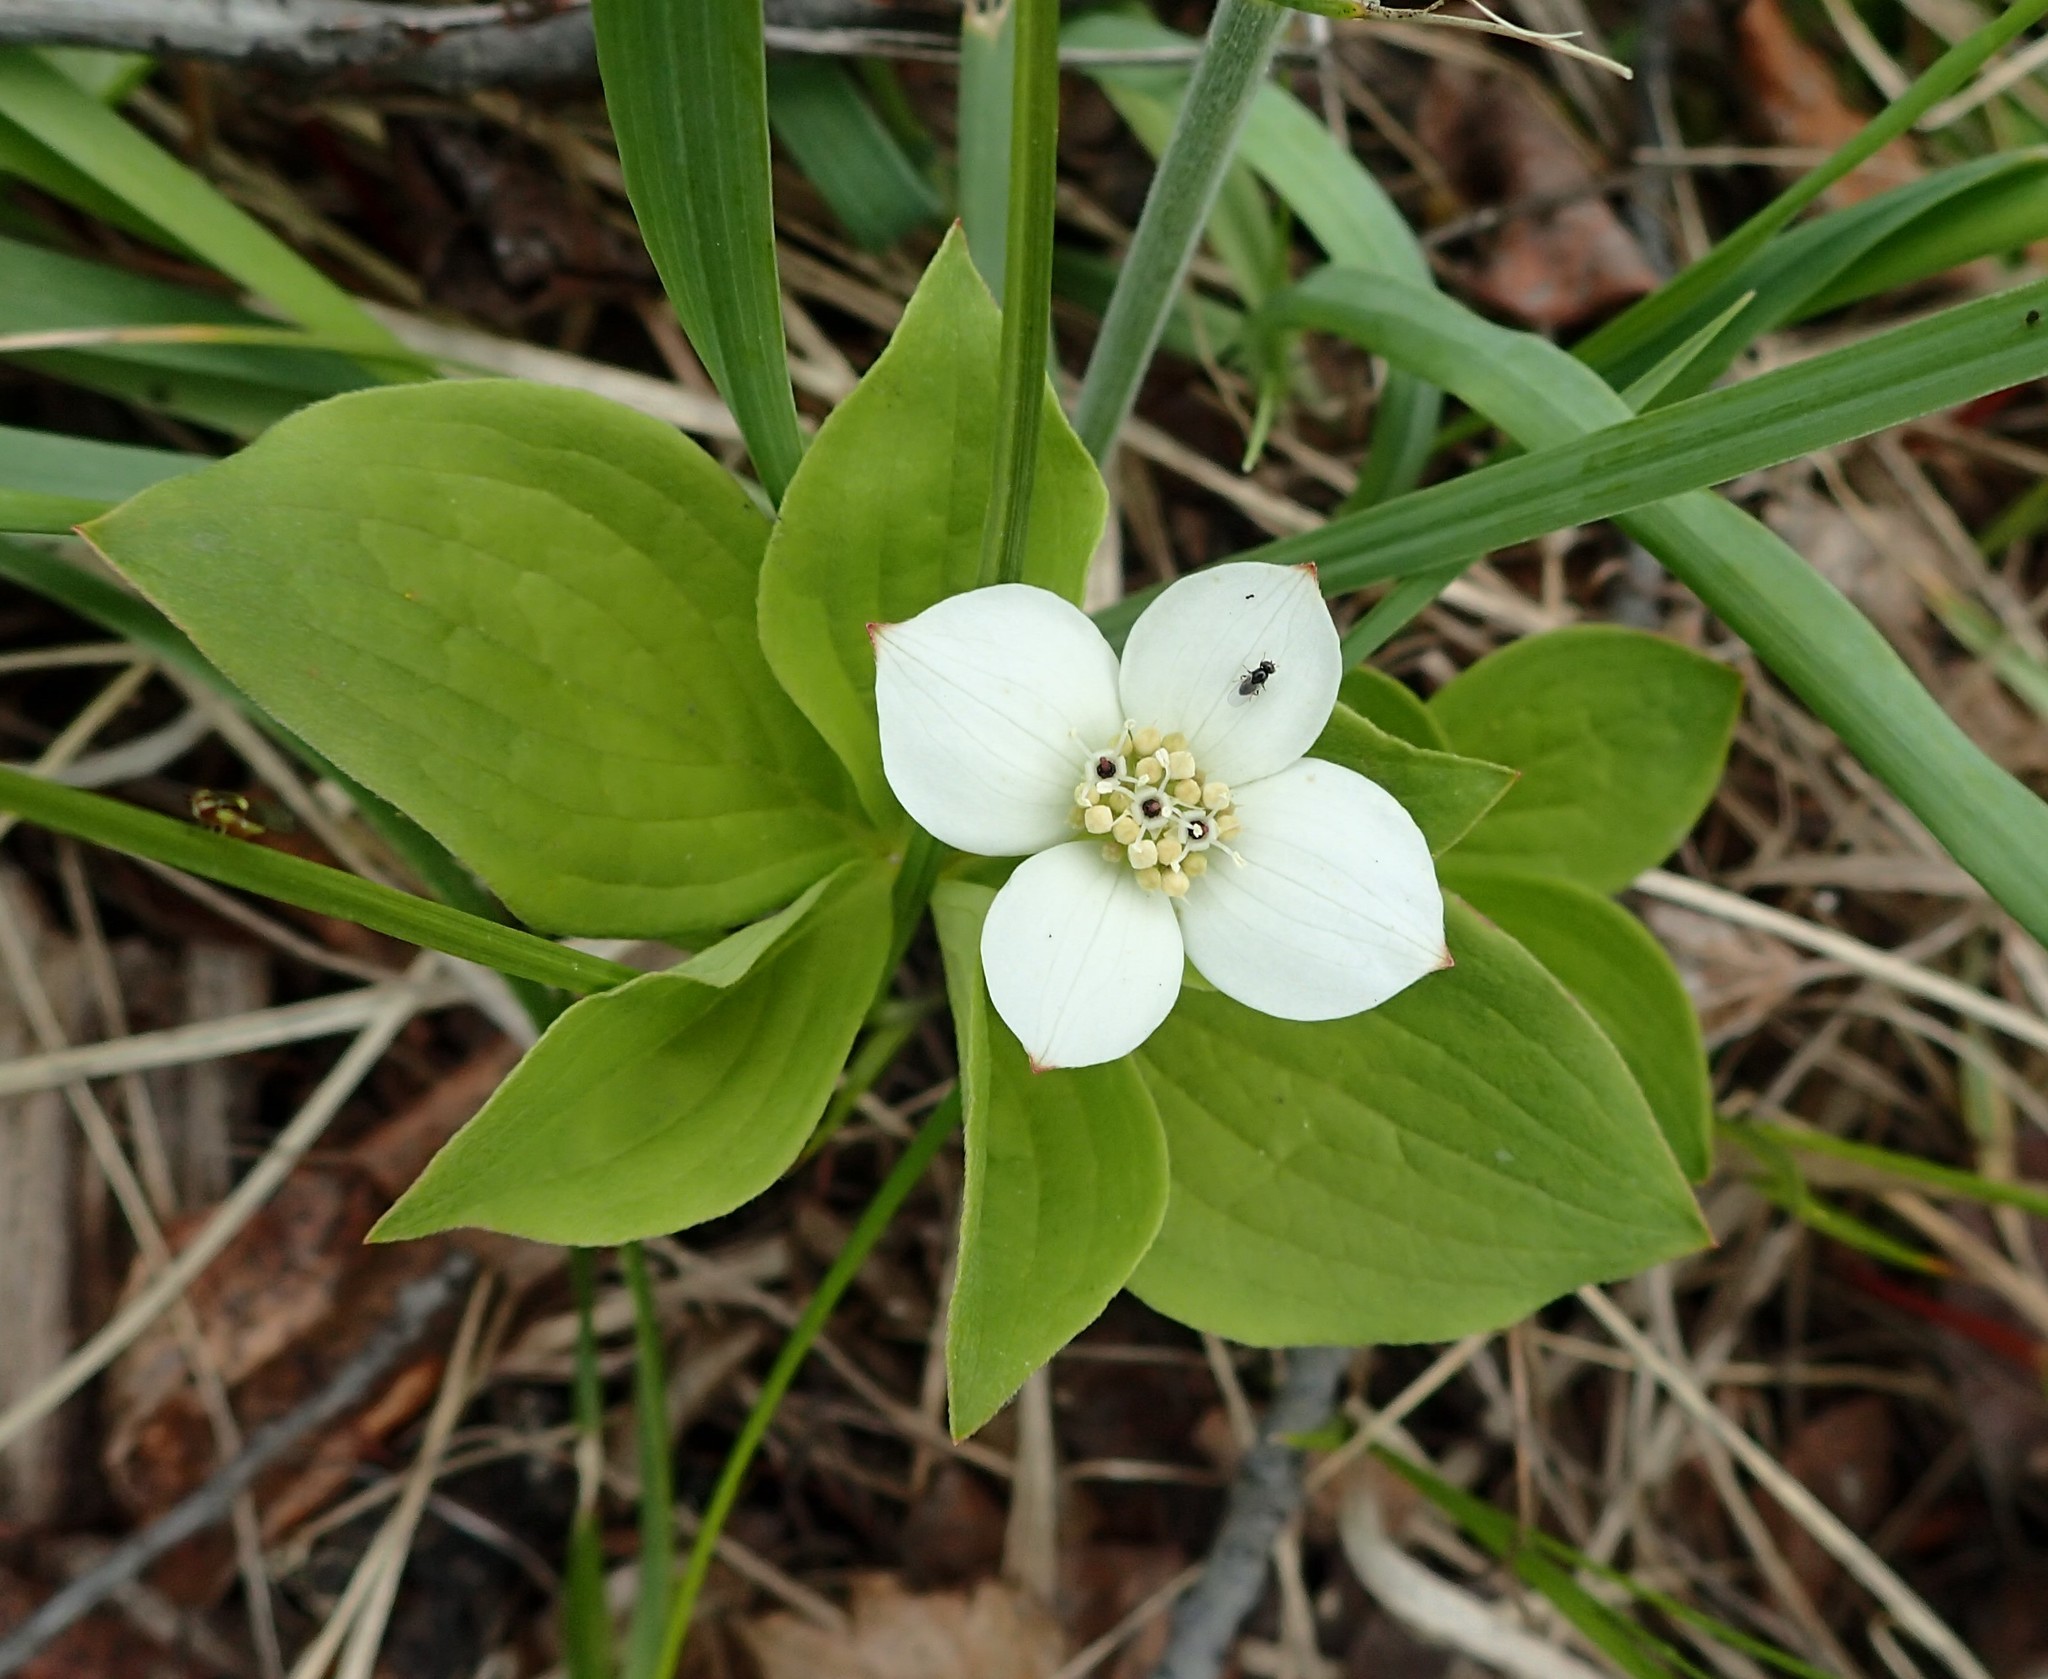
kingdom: Plantae
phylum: Tracheophyta
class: Magnoliopsida
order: Cornales
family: Cornaceae
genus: Cornus
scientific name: Cornus canadensis
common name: Creeping dogwood
